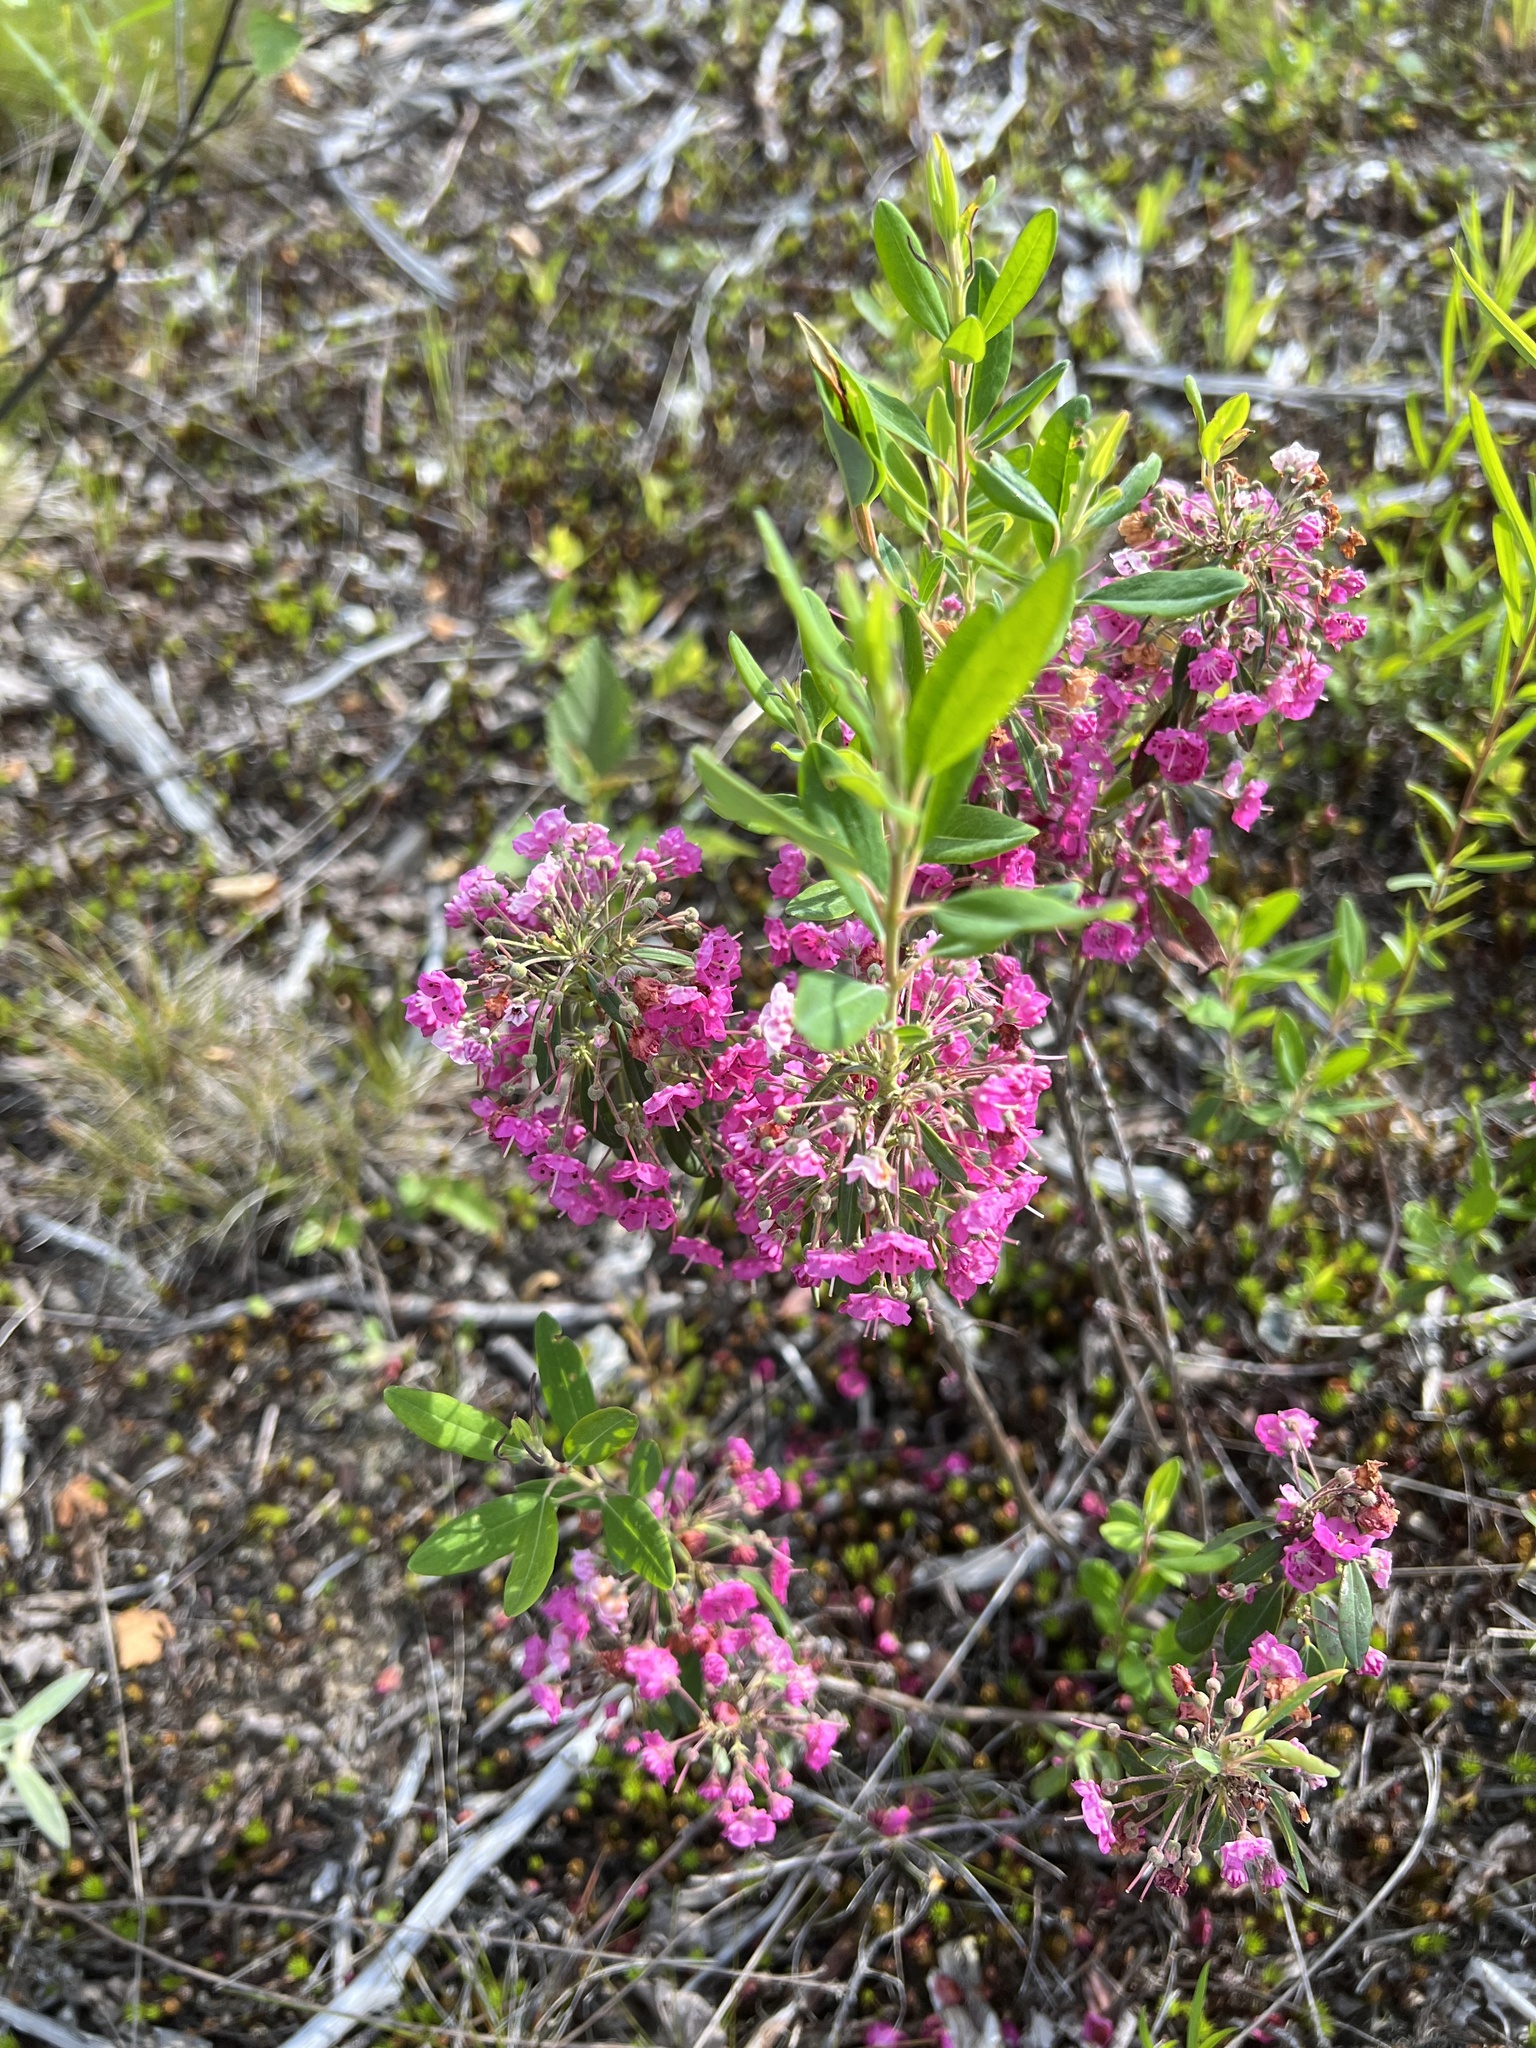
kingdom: Plantae
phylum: Tracheophyta
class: Magnoliopsida
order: Ericales
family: Ericaceae
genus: Kalmia
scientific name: Kalmia angustifolia
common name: Sheep-laurel
